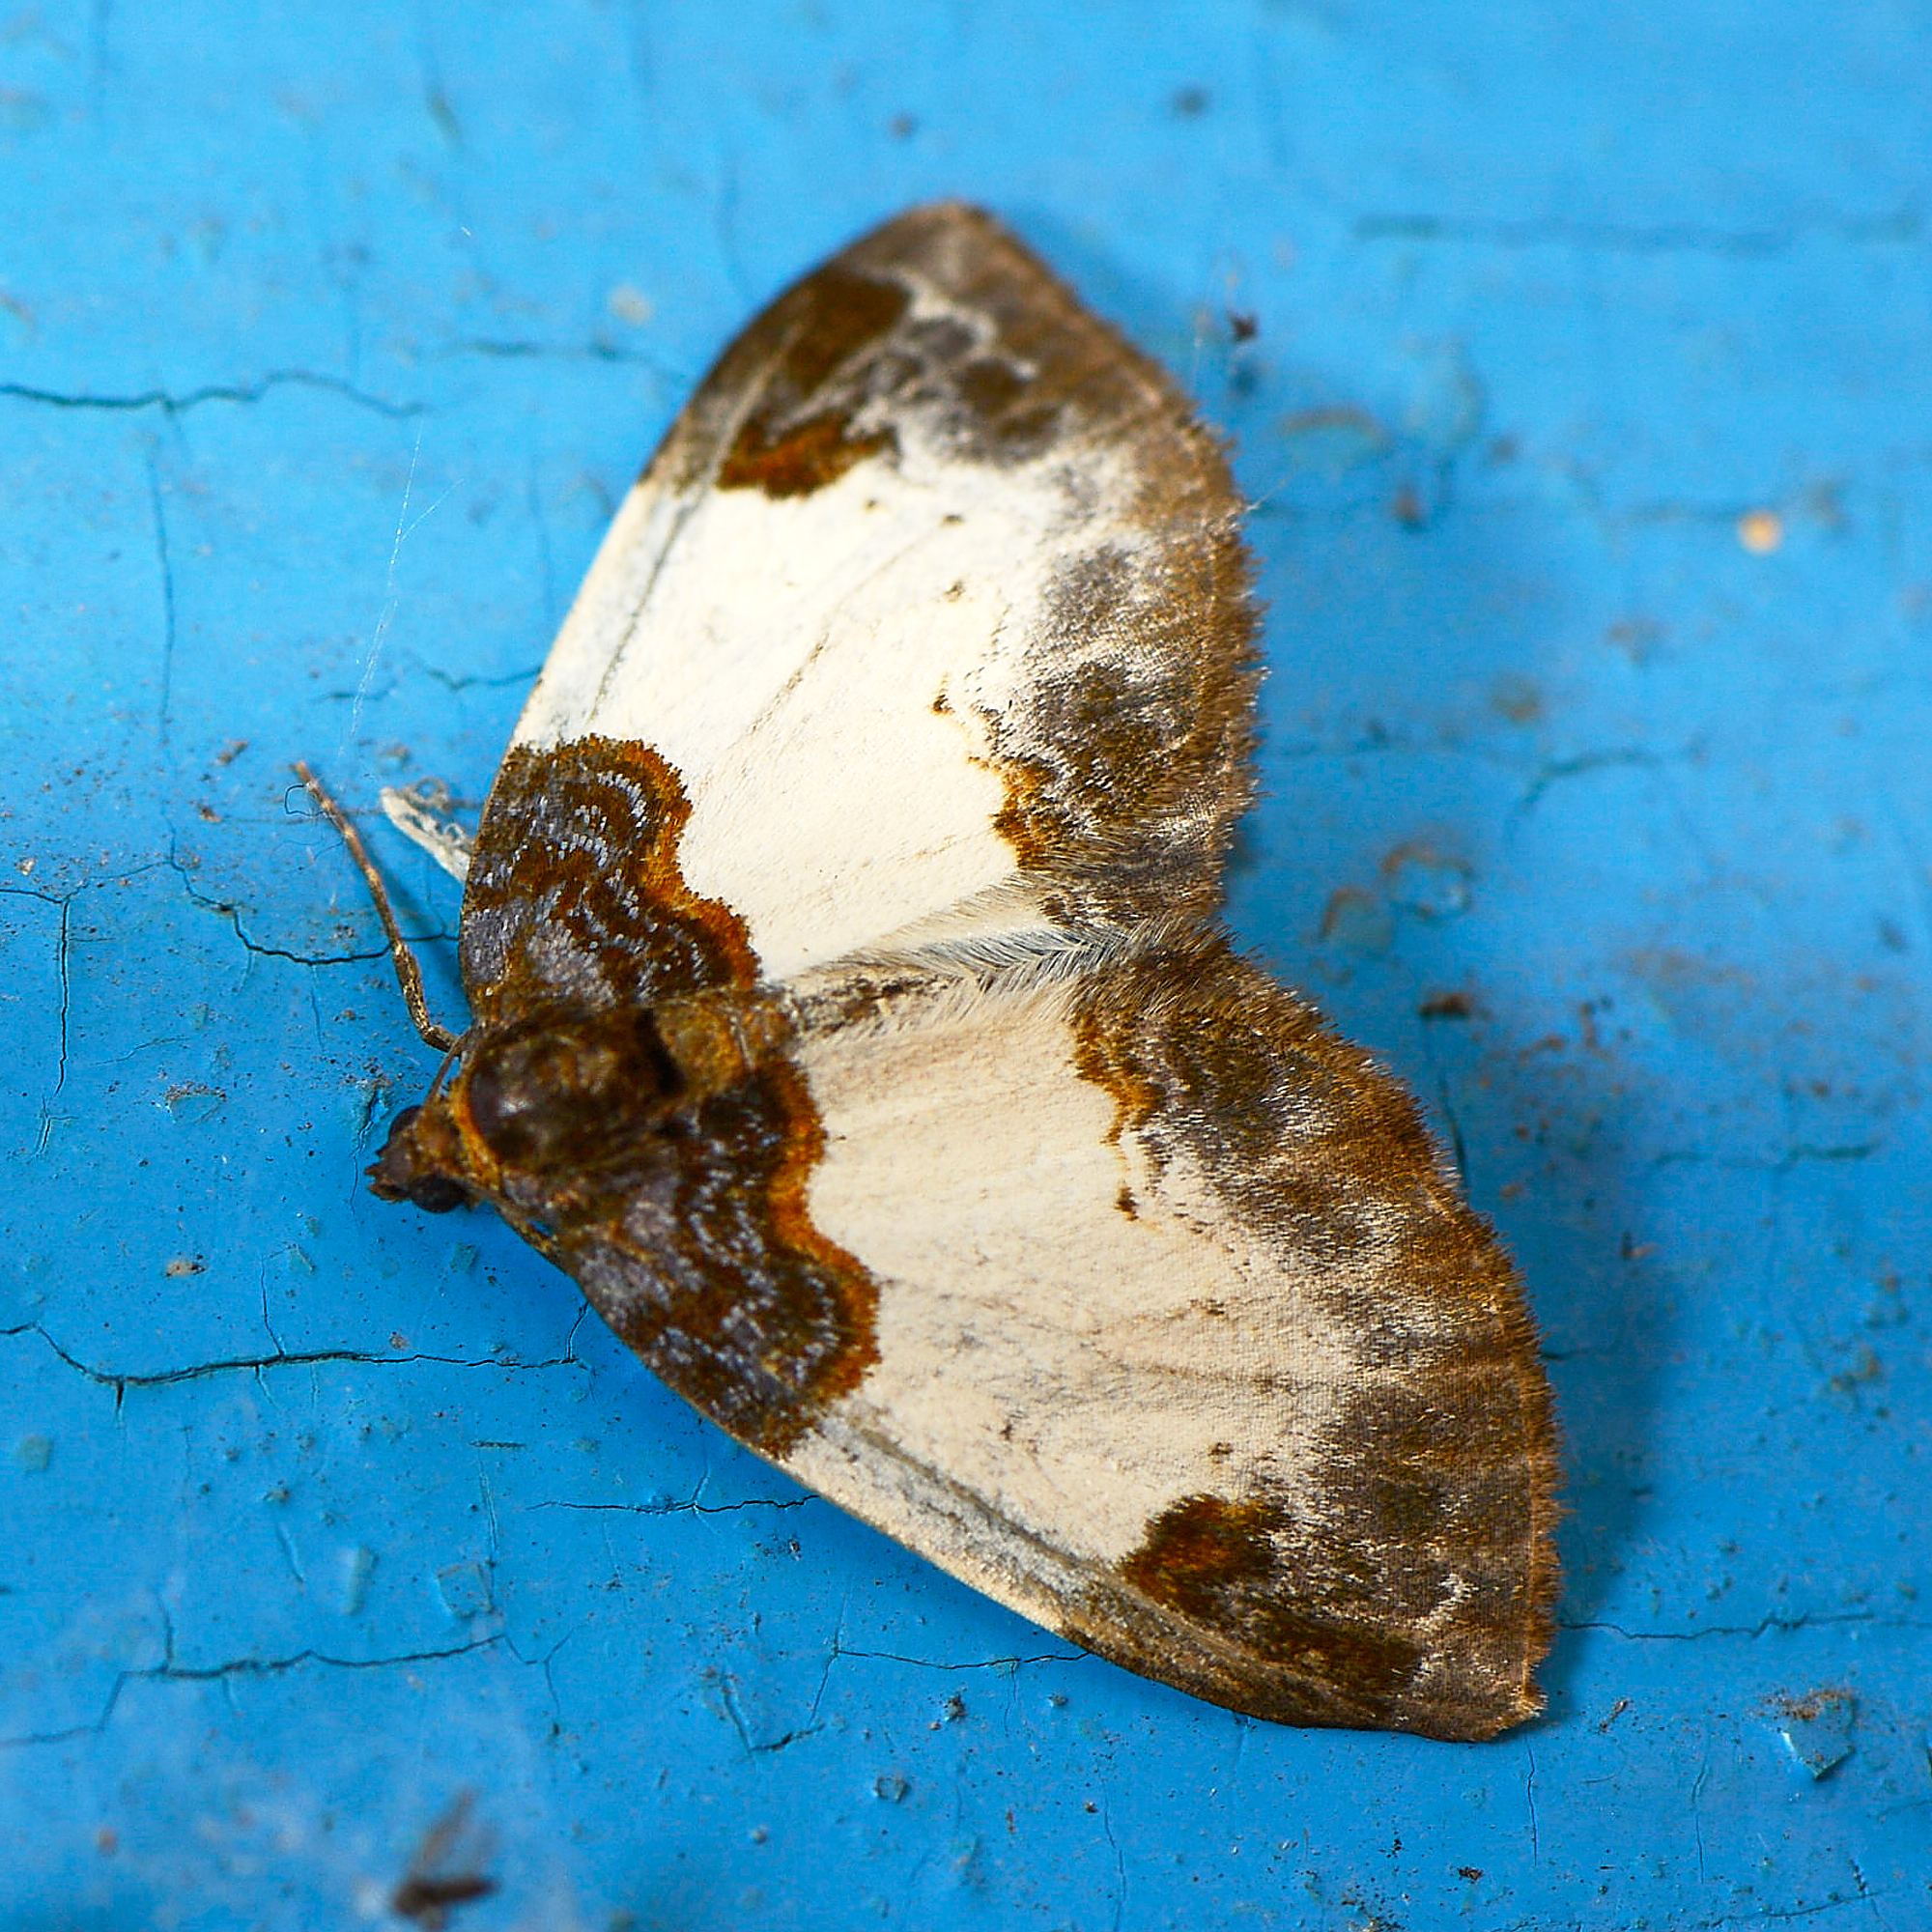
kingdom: Animalia
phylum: Arthropoda
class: Insecta
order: Lepidoptera
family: Geometridae
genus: Mesoleuca
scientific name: Mesoleuca albicillata
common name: Beautiful carpet
